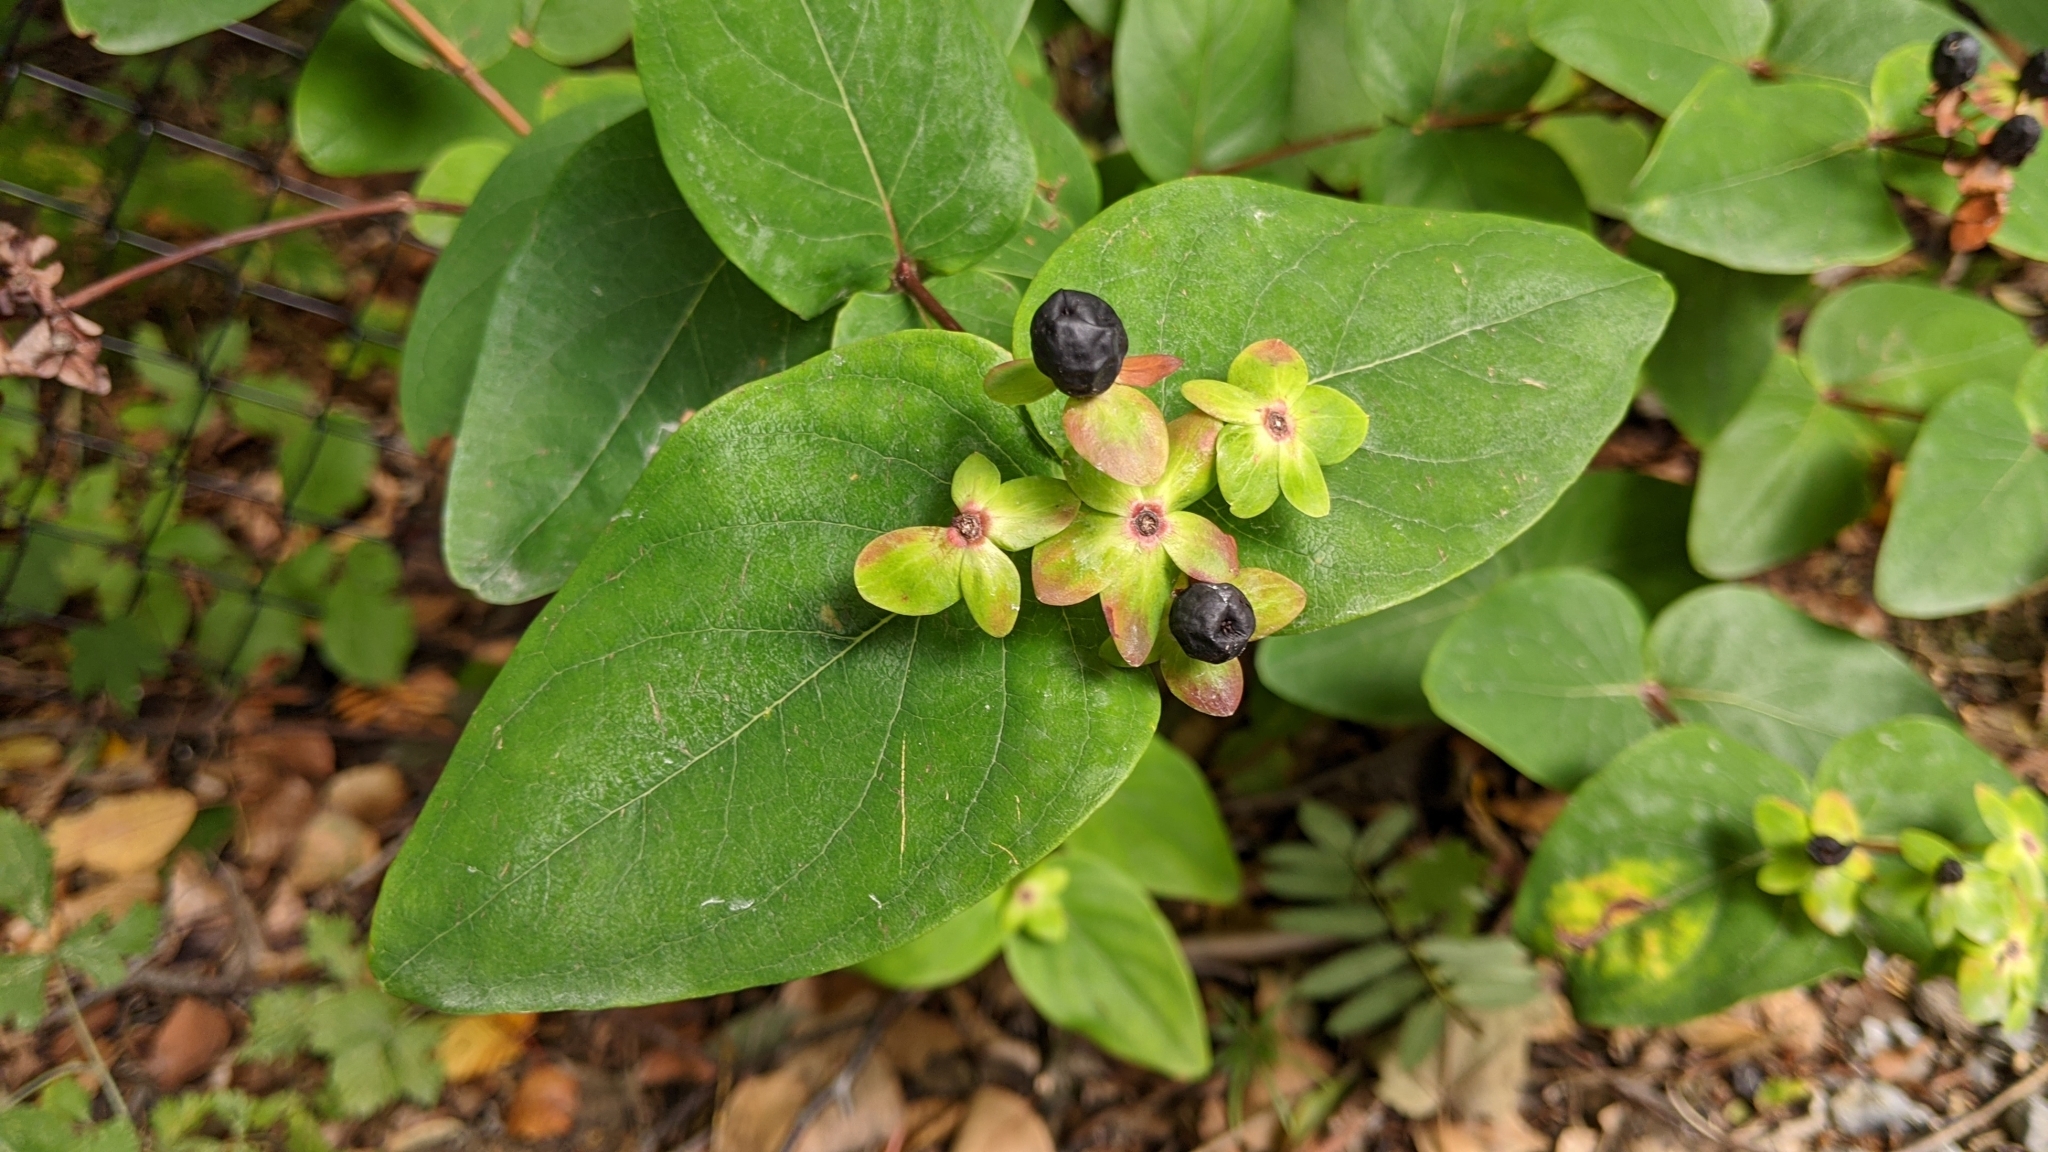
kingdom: Plantae
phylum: Tracheophyta
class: Magnoliopsida
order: Malpighiales
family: Hypericaceae
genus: Hypericum
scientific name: Hypericum androsaemum
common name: Sweet-amber
